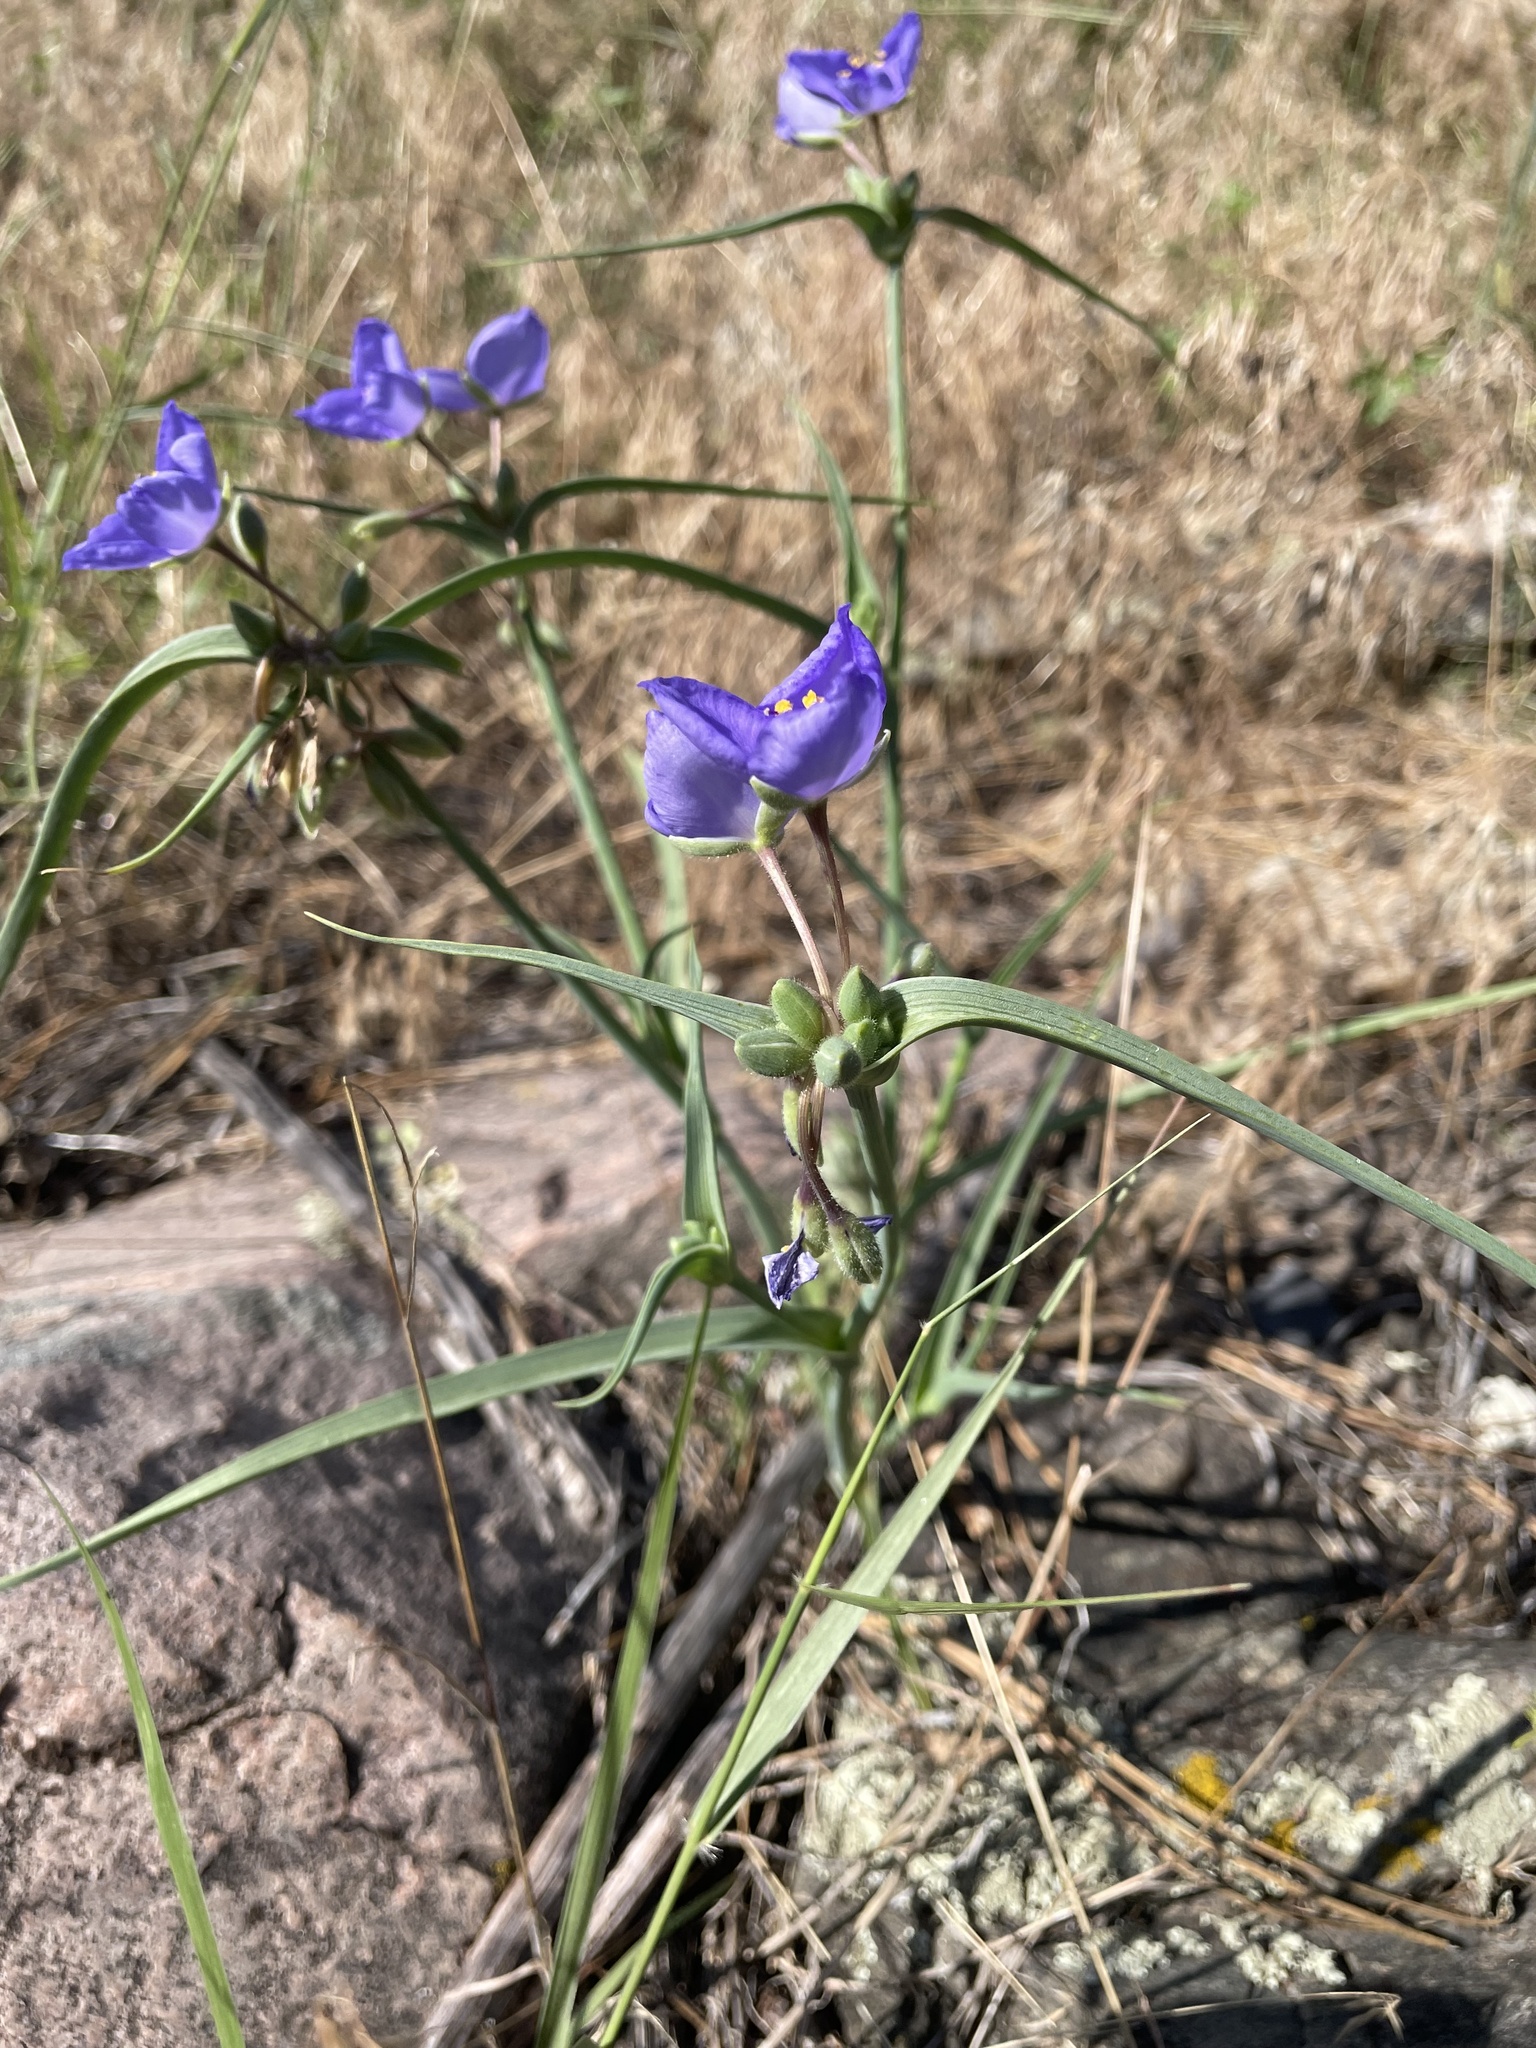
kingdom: Plantae
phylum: Tracheophyta
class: Liliopsida
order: Commelinales
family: Commelinaceae
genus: Tradescantia
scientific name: Tradescantia occidentalis
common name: Prairie spiderwort
